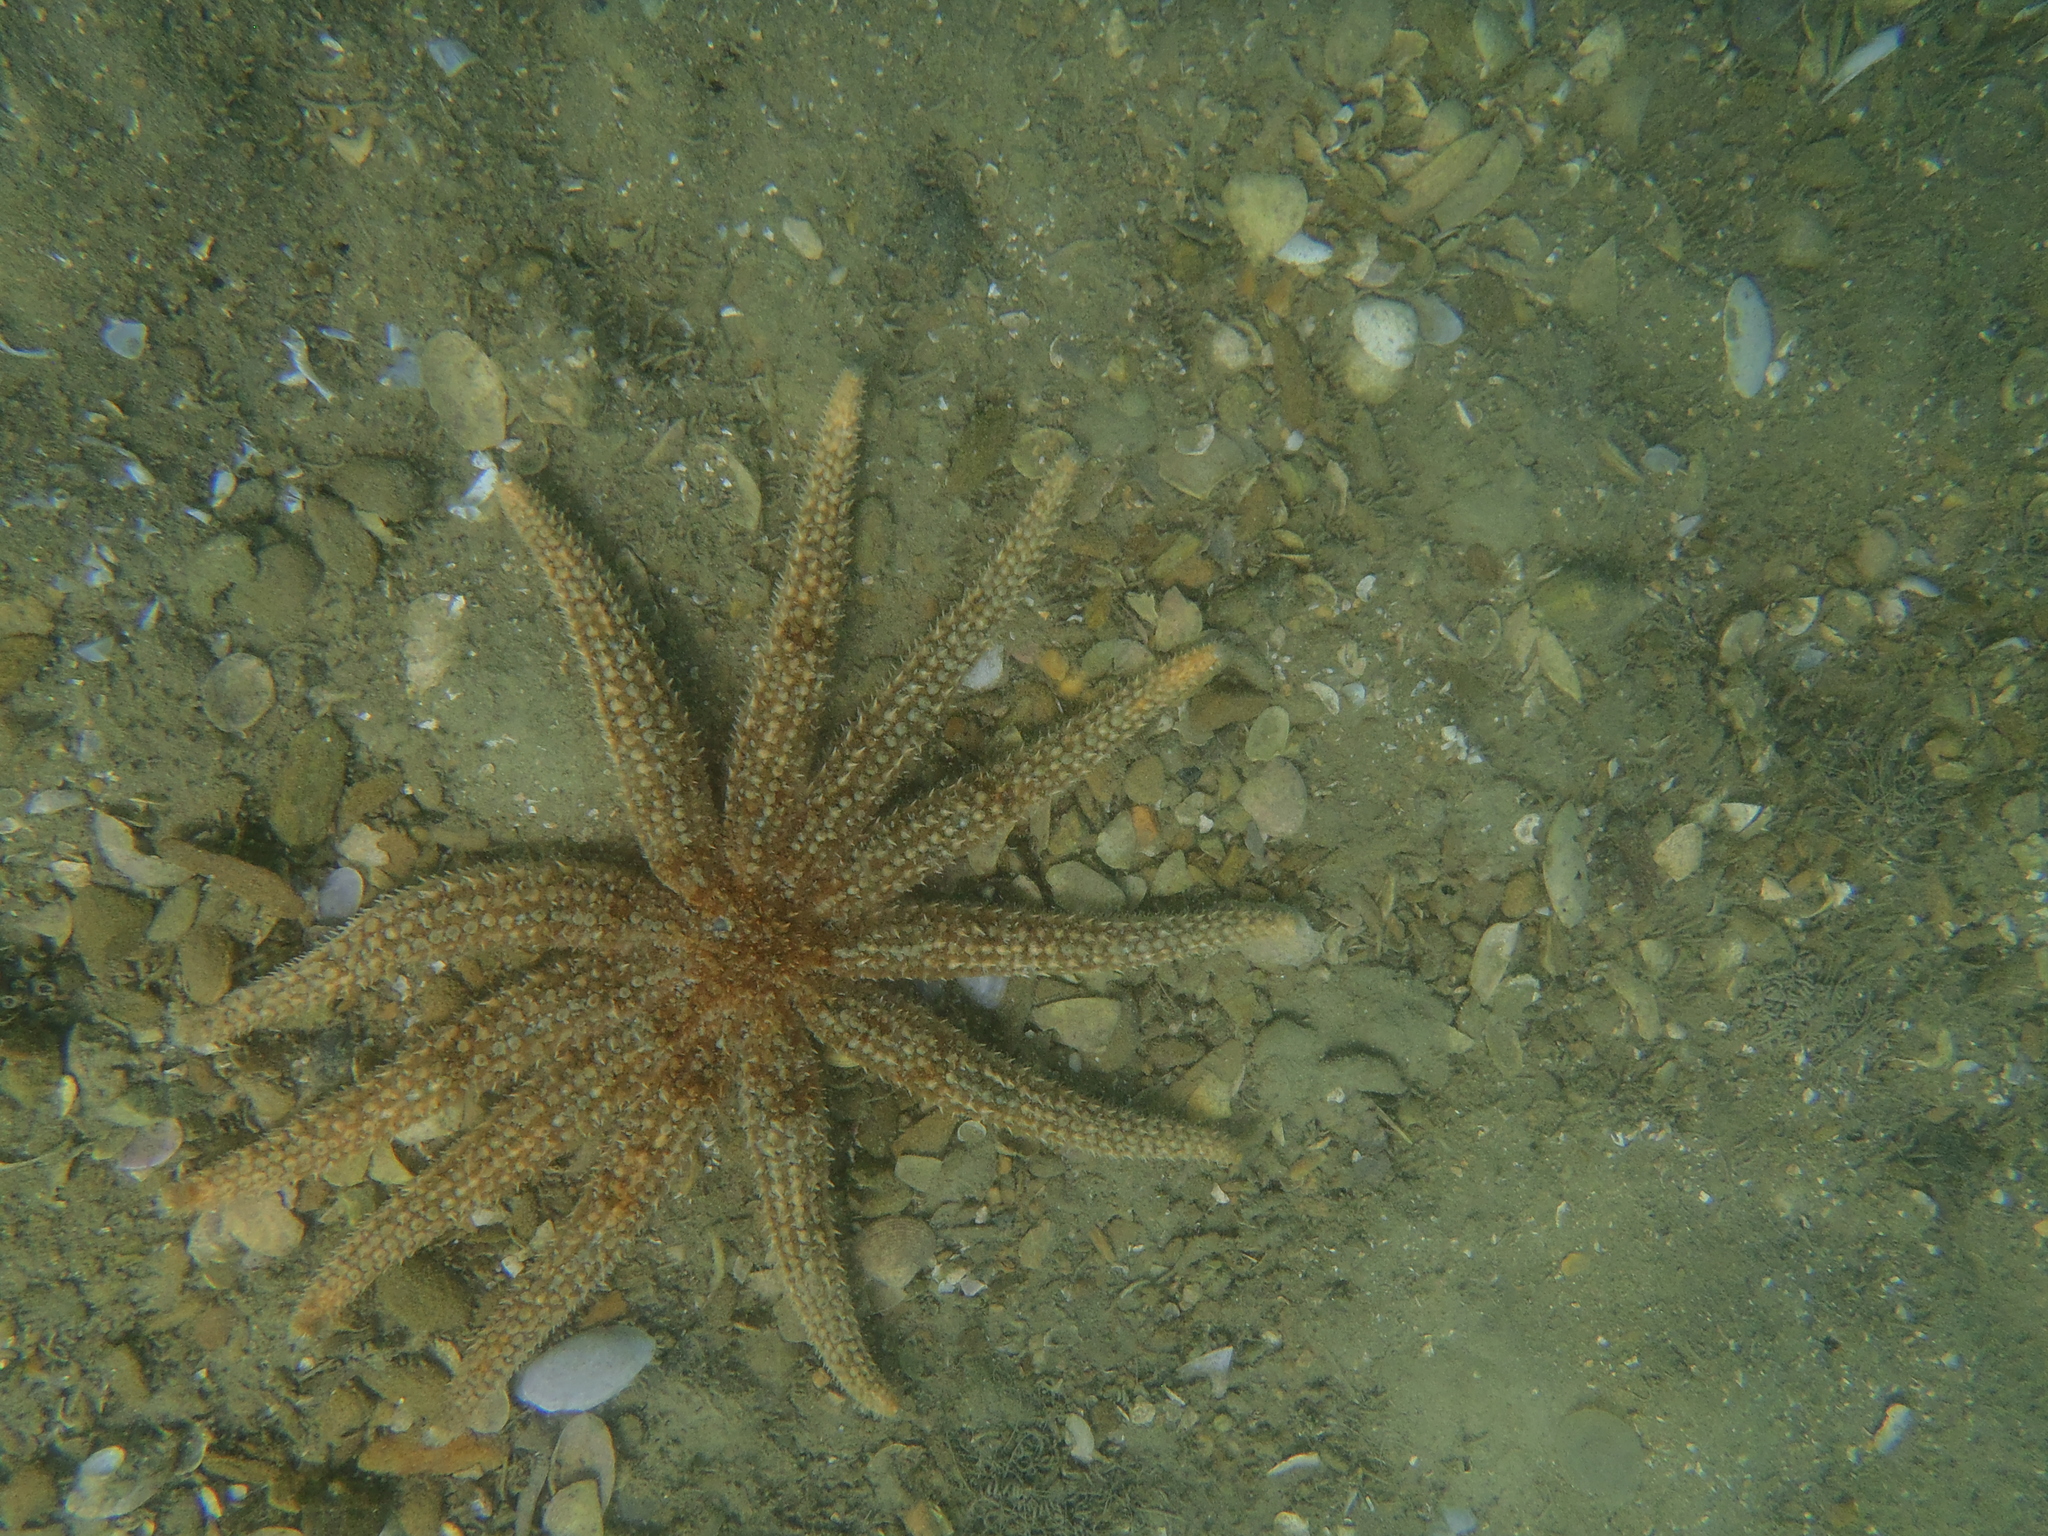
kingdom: Animalia
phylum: Echinodermata
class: Asteroidea
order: Forcipulatida
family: Asteriidae
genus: Coscinasterias
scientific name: Coscinasterias muricata
